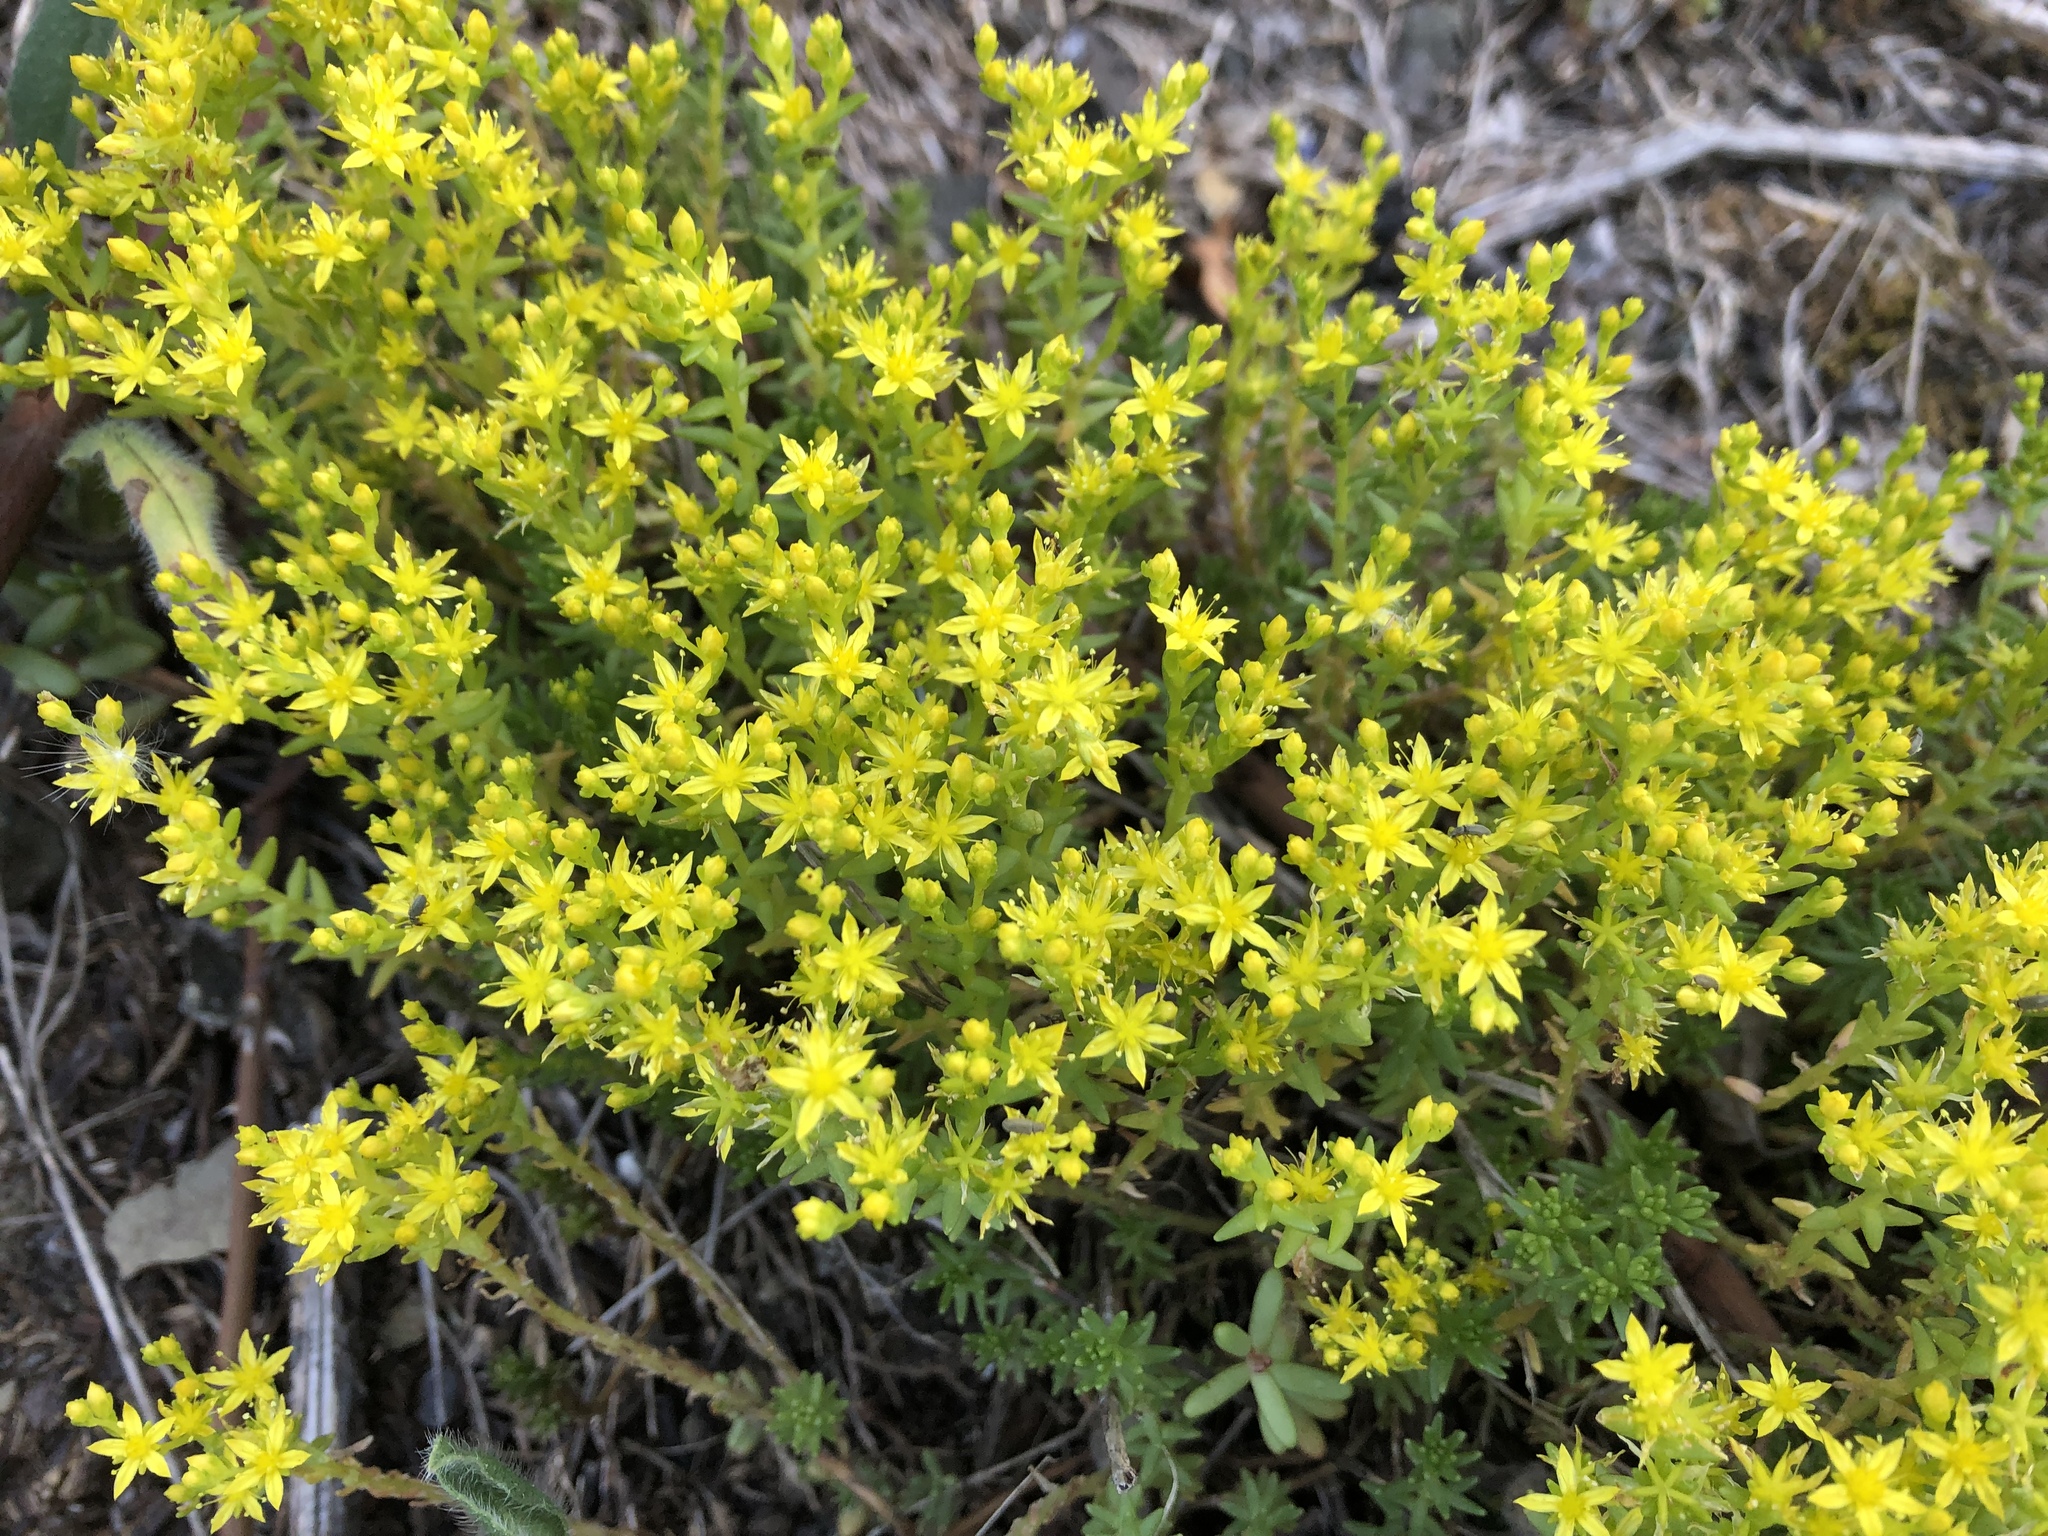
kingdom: Plantae
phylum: Tracheophyta
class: Magnoliopsida
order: Saxifragales
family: Crassulaceae
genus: Sedum
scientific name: Sedum sexangulare
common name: Tasteless stonecrop
